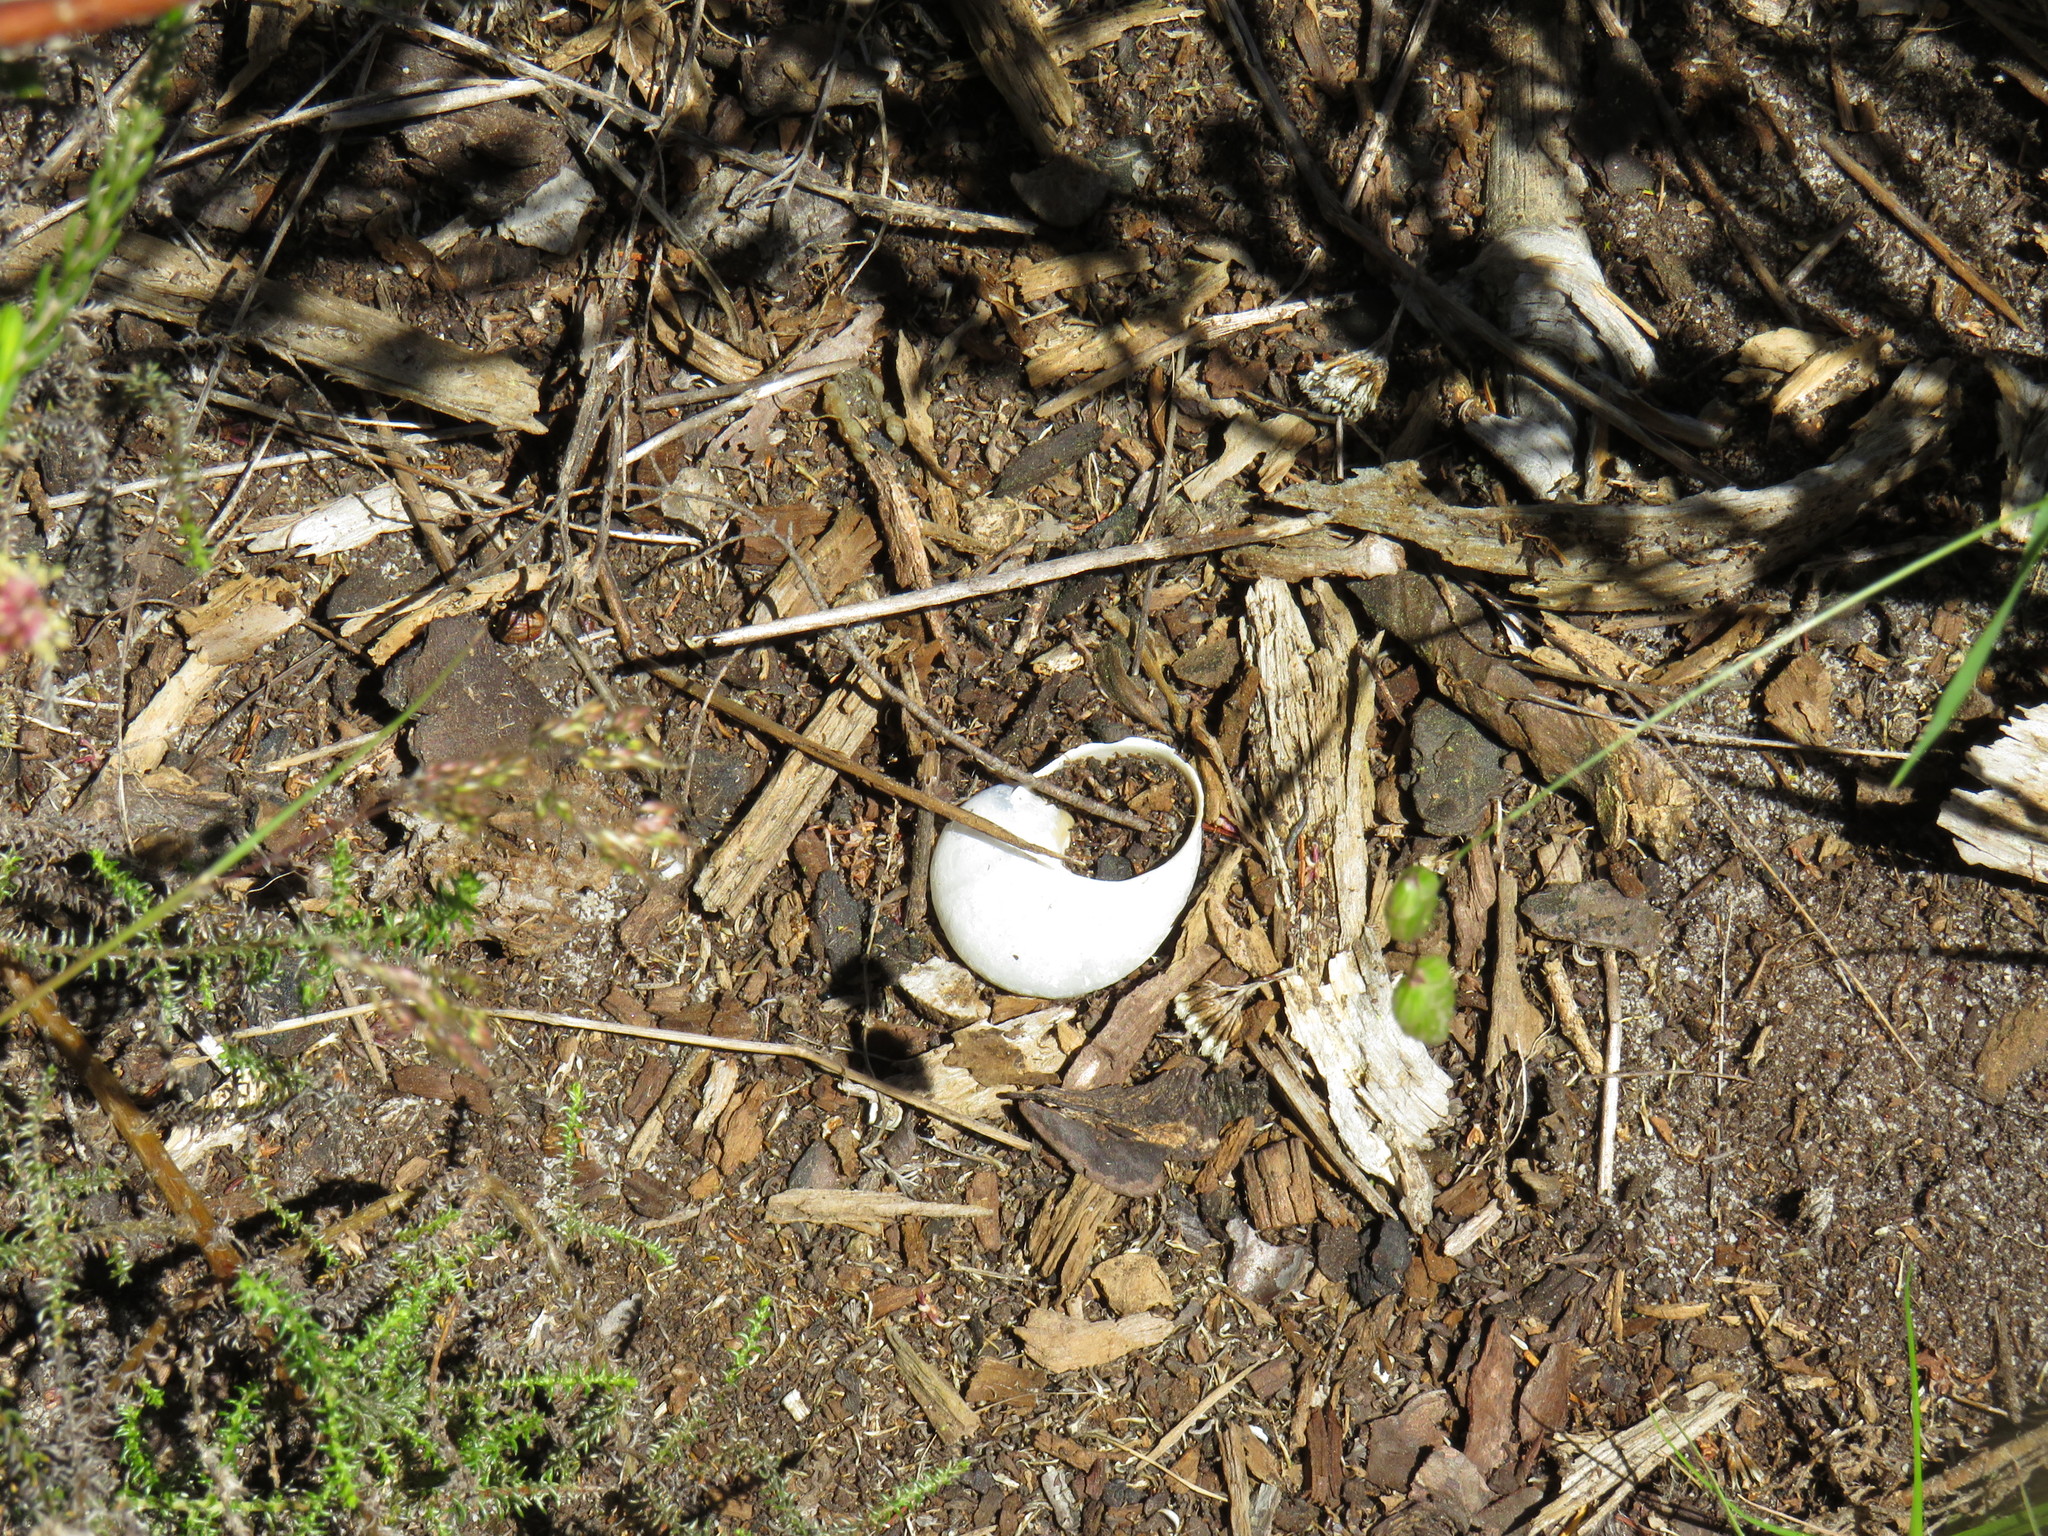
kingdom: Animalia
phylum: Mollusca
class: Gastropoda
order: Stylommatophora
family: Helicidae
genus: Cornu
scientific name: Cornu aspersum
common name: Brown garden snail
